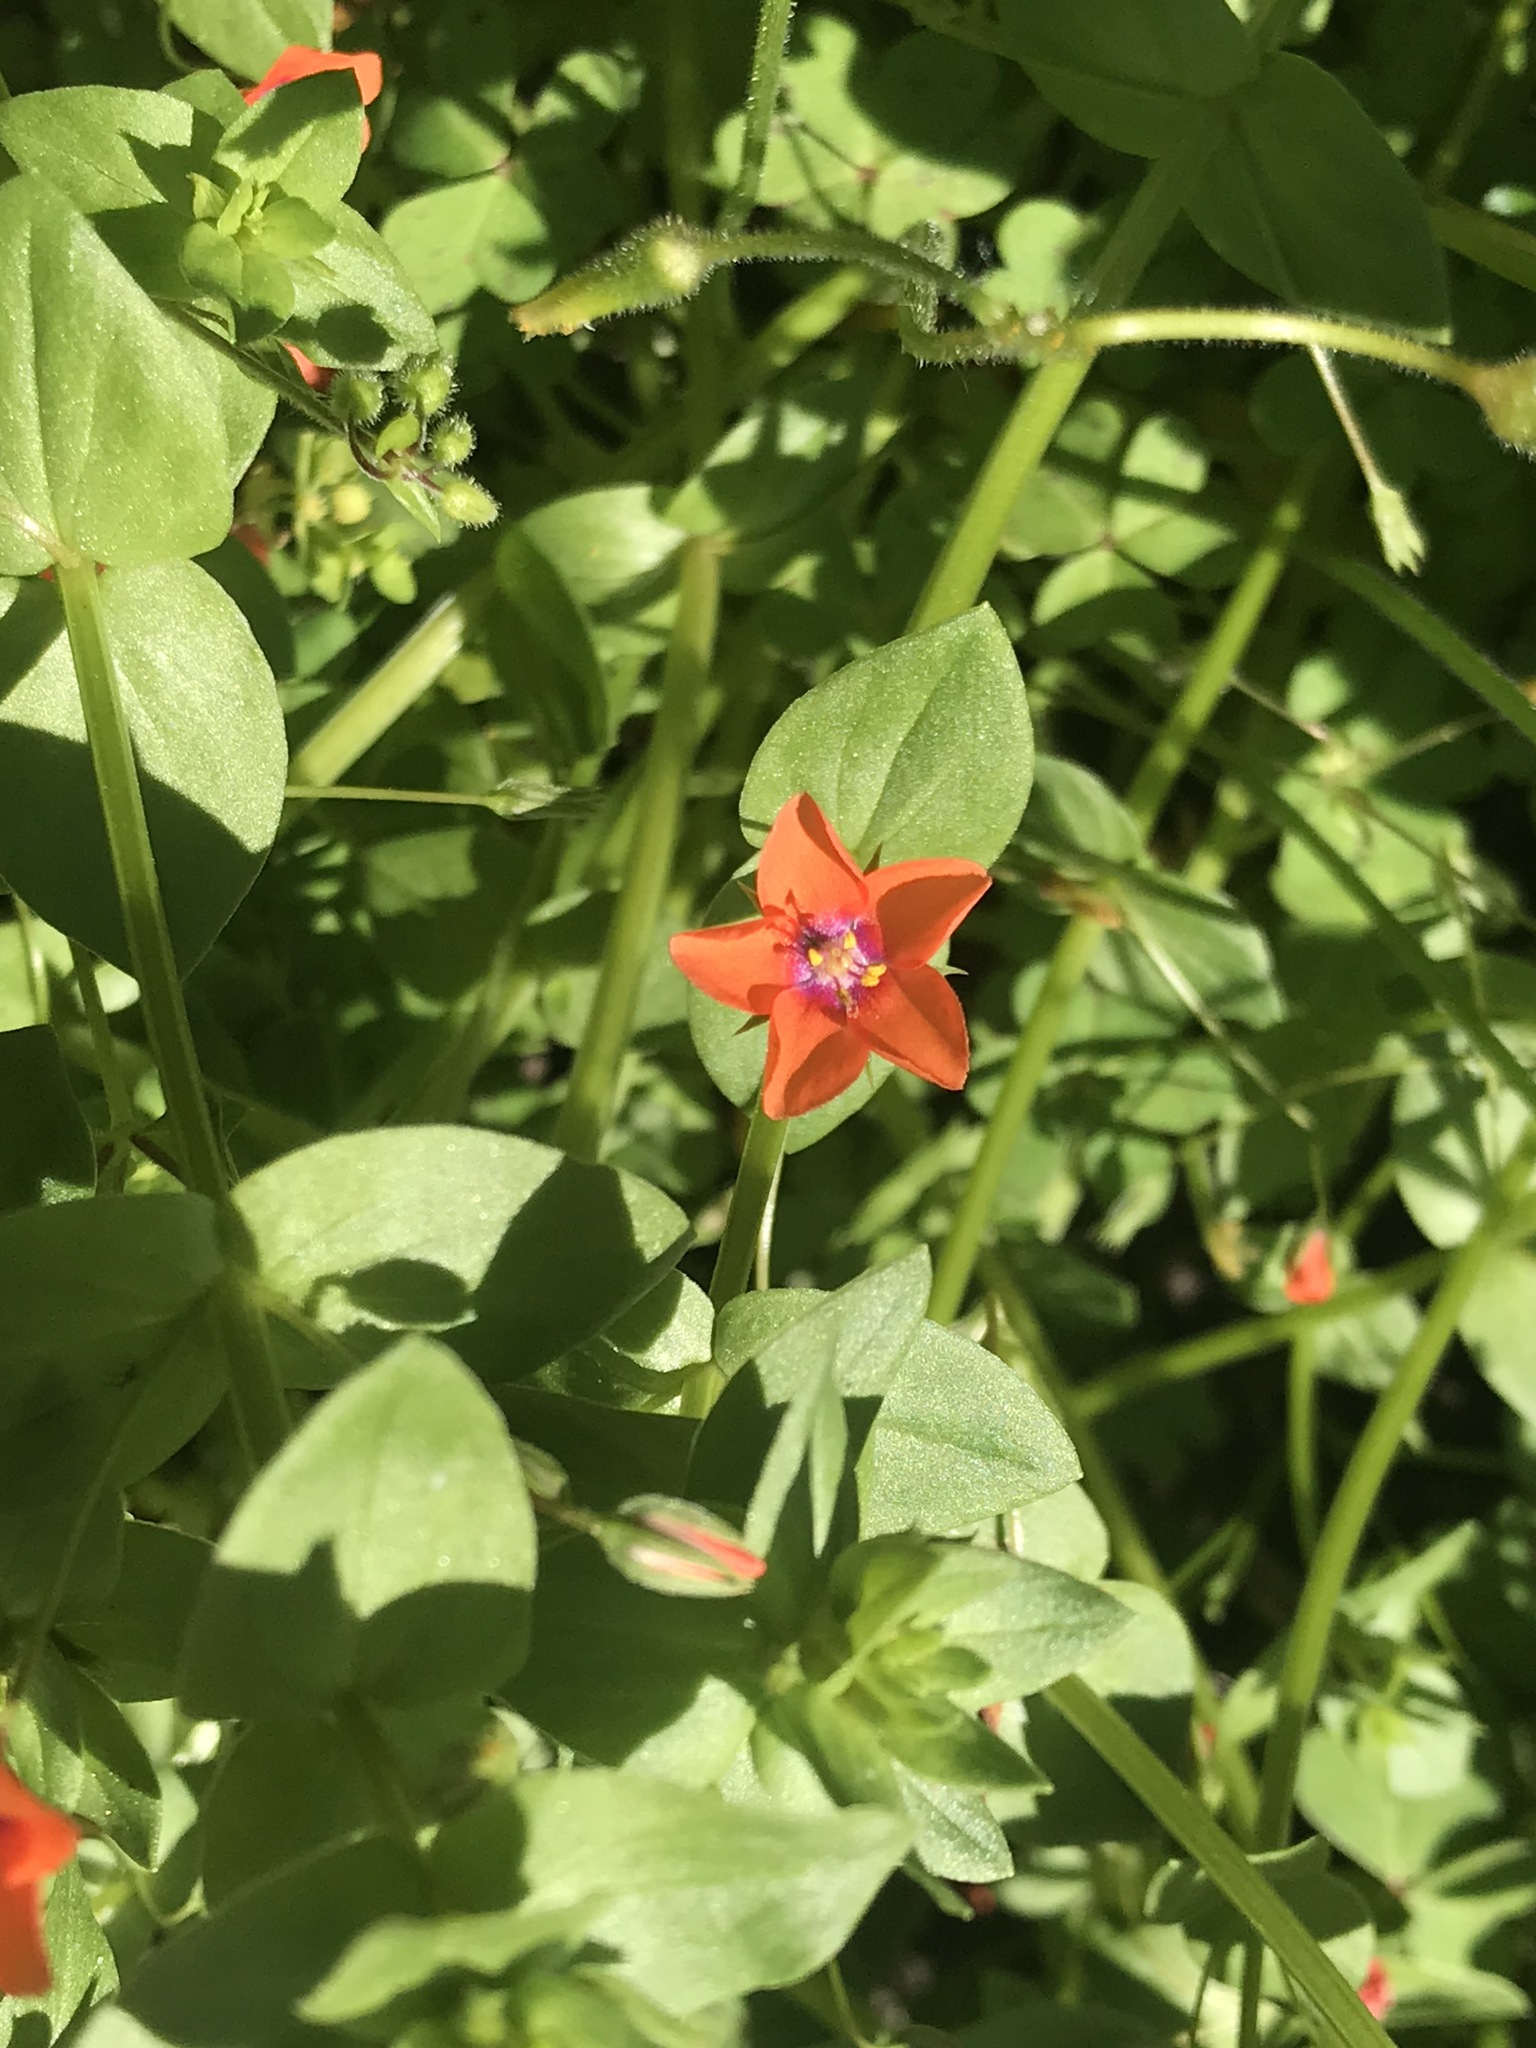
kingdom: Plantae
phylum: Tracheophyta
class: Magnoliopsida
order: Ericales
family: Primulaceae
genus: Lysimachia
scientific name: Lysimachia arvensis
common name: Scarlet pimpernel
